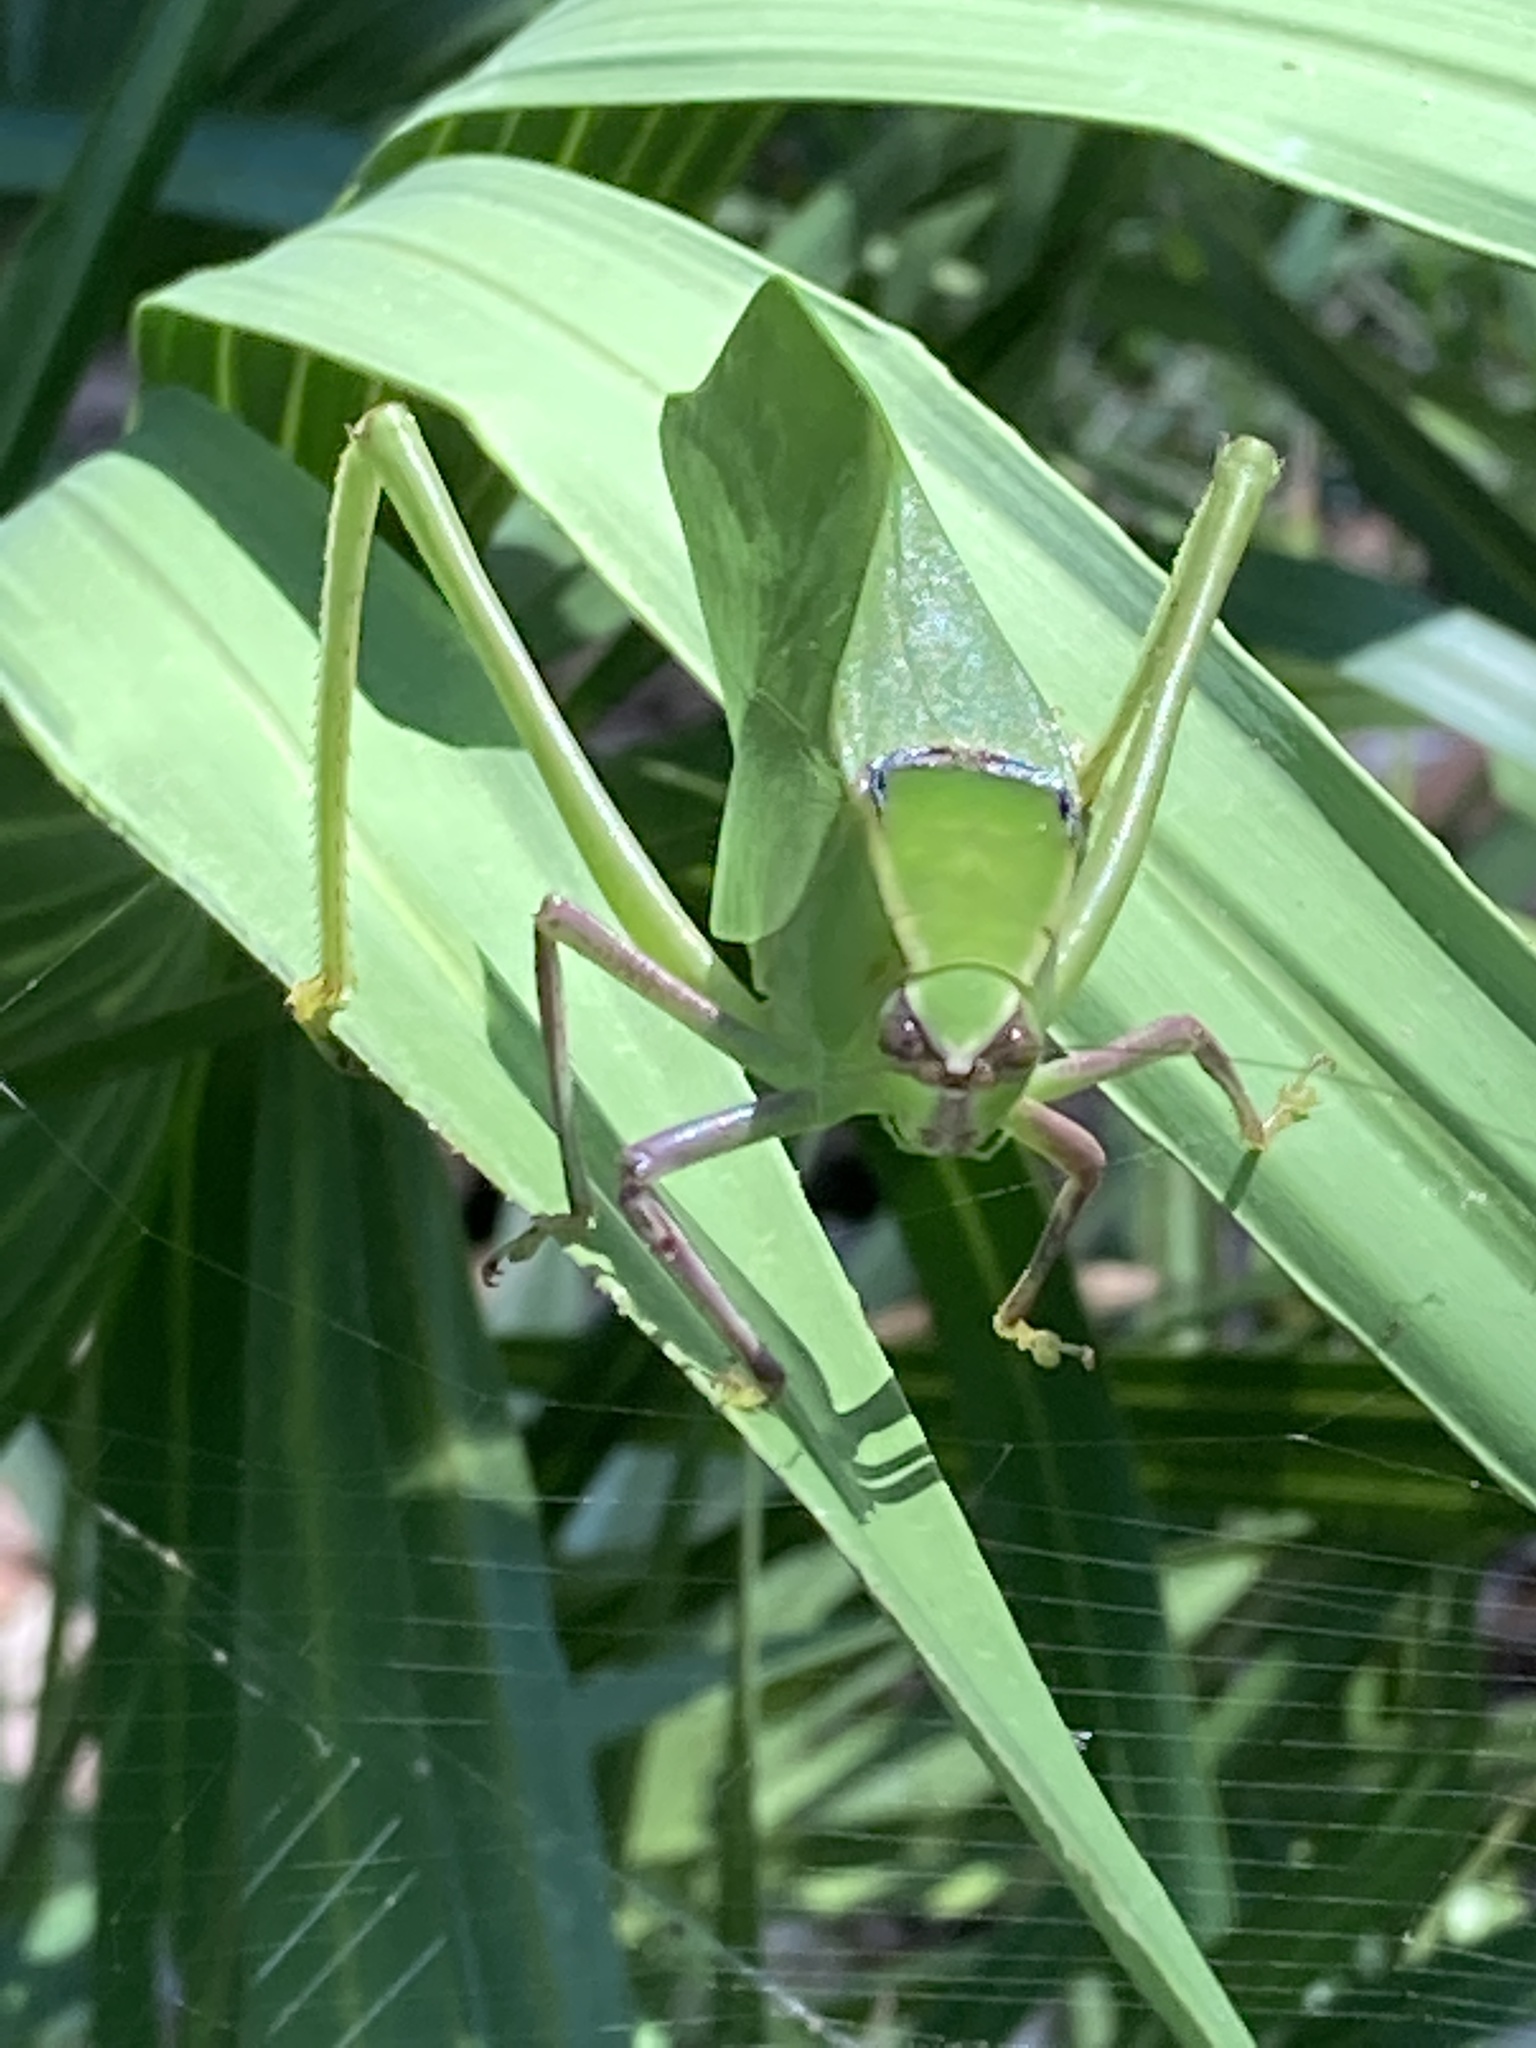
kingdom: Animalia
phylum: Arthropoda
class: Insecta
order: Orthoptera
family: Tettigoniidae
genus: Stilpnochlora
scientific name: Stilpnochlora couloniana
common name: Giant katydid
